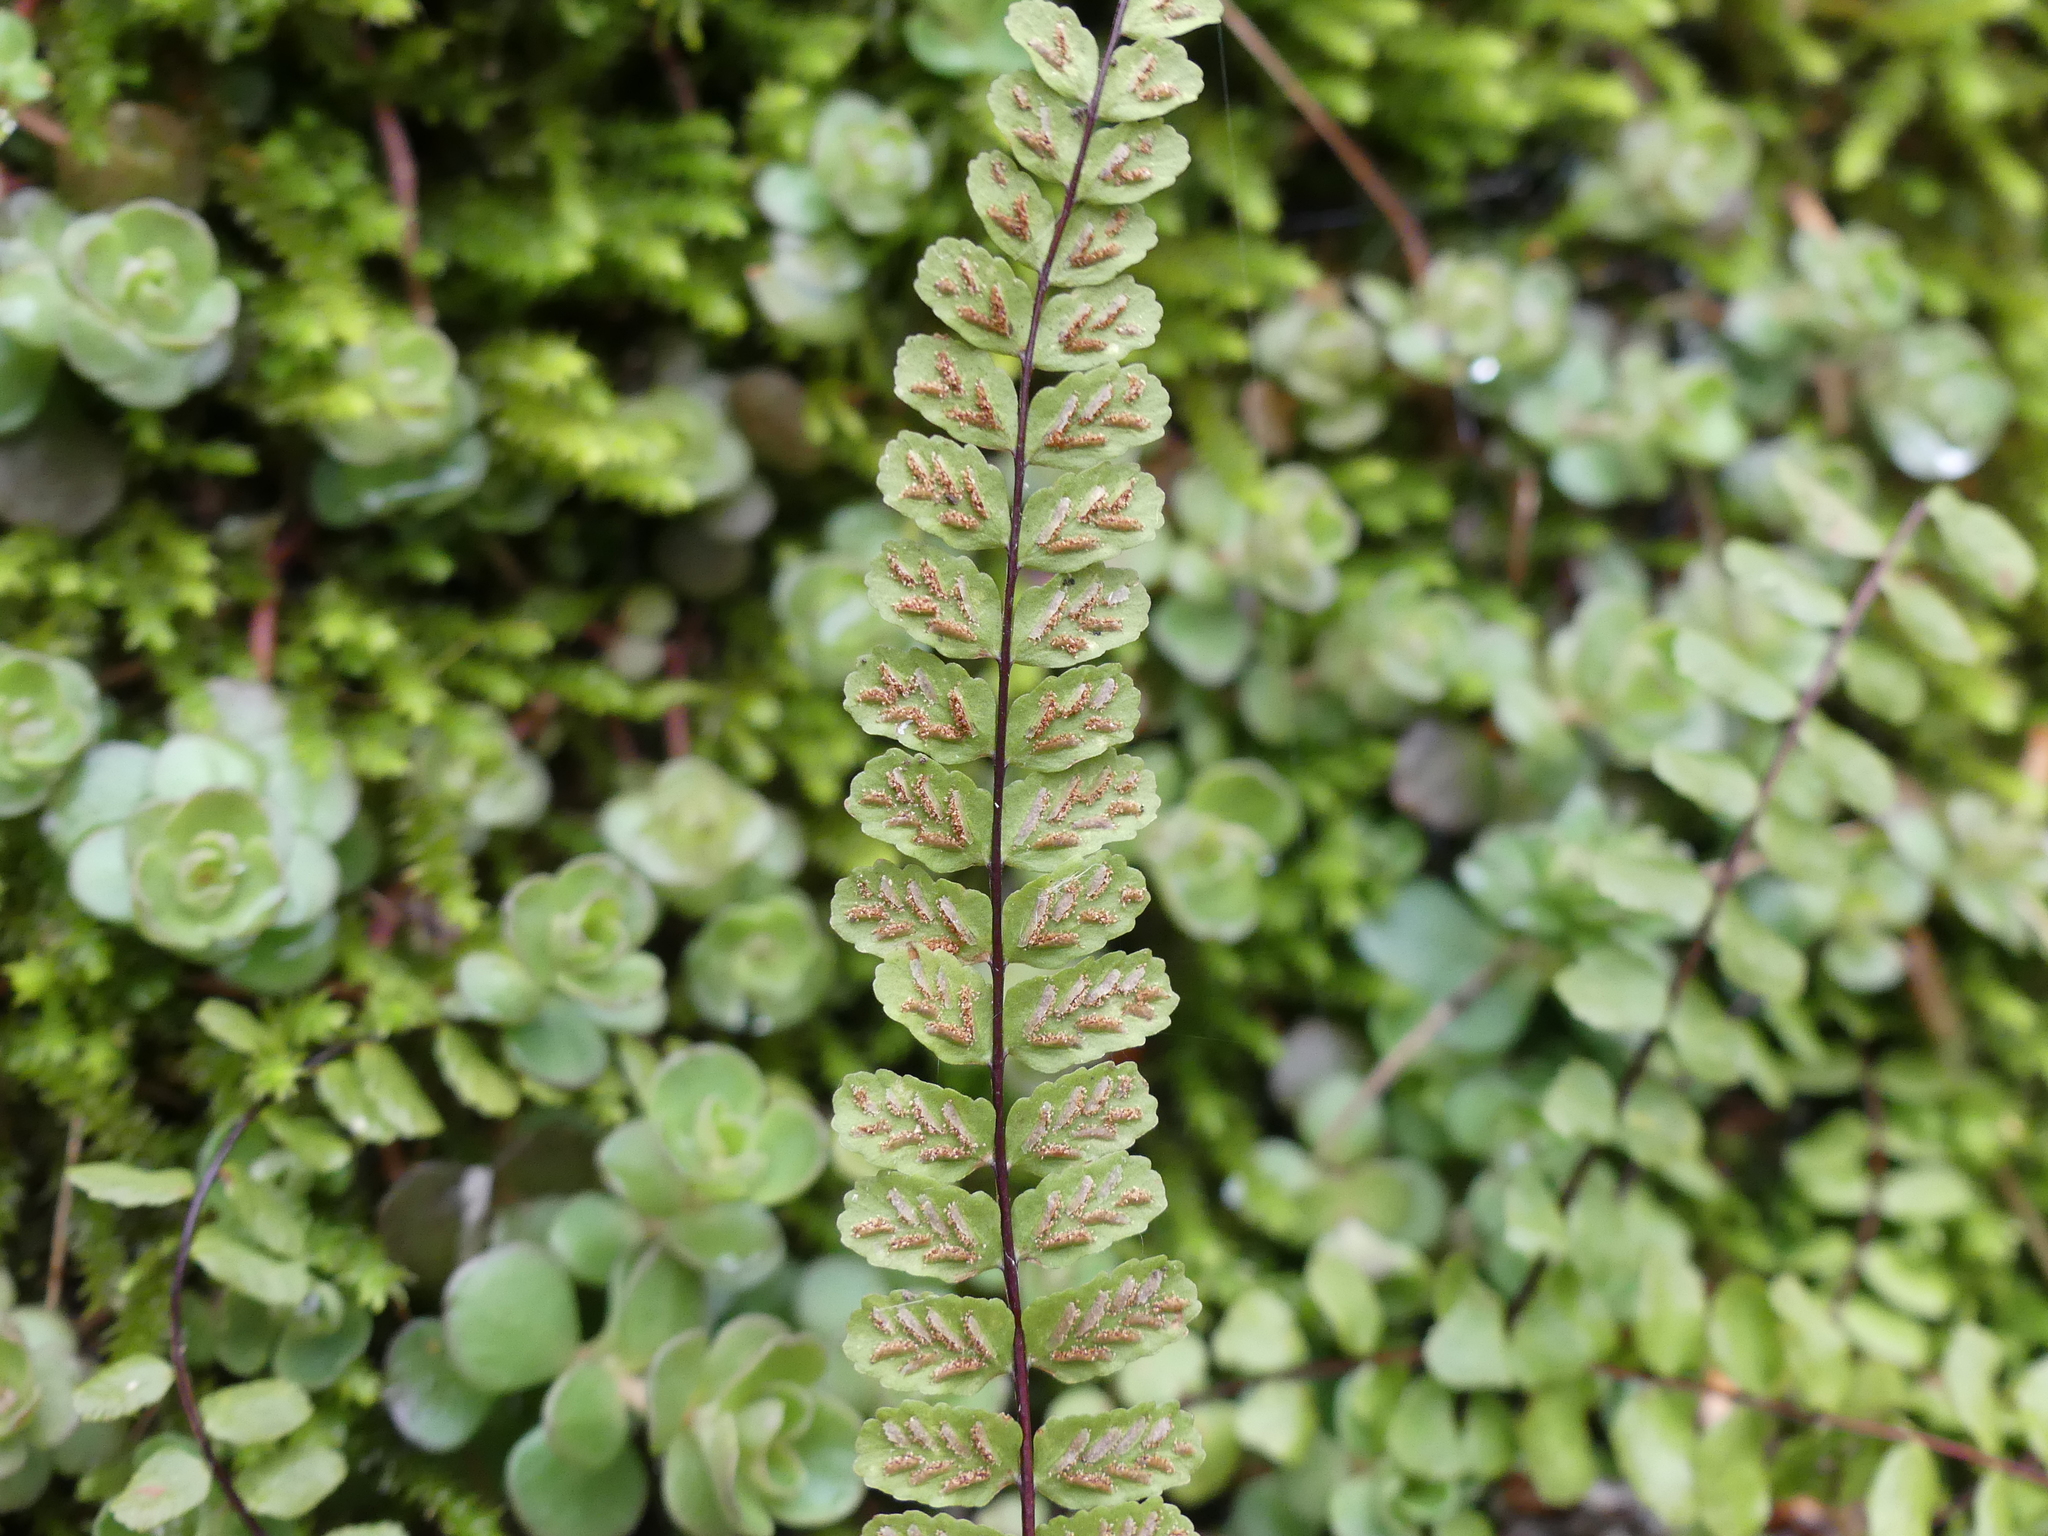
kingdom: Plantae
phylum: Tracheophyta
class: Polypodiopsida
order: Polypodiales
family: Aspleniaceae
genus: Asplenium
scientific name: Asplenium trichomanes
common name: Maidenhair spleenwort
